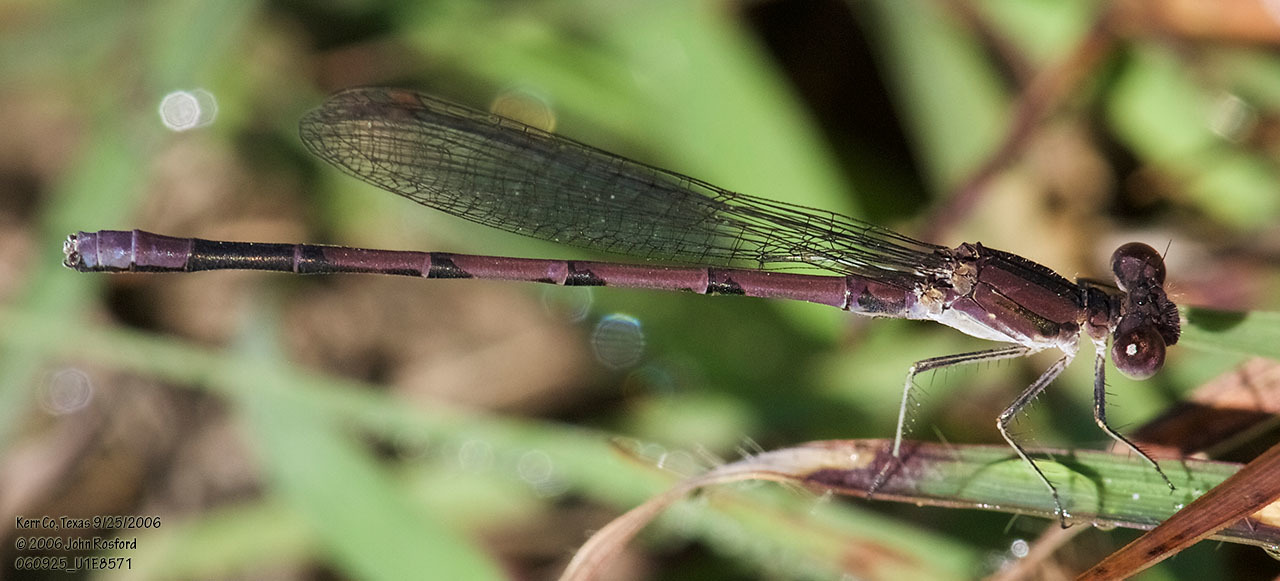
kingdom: Animalia
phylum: Arthropoda
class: Insecta
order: Odonata
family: Coenagrionidae
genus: Argia
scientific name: Argia fumipennis
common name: Variable dancer
